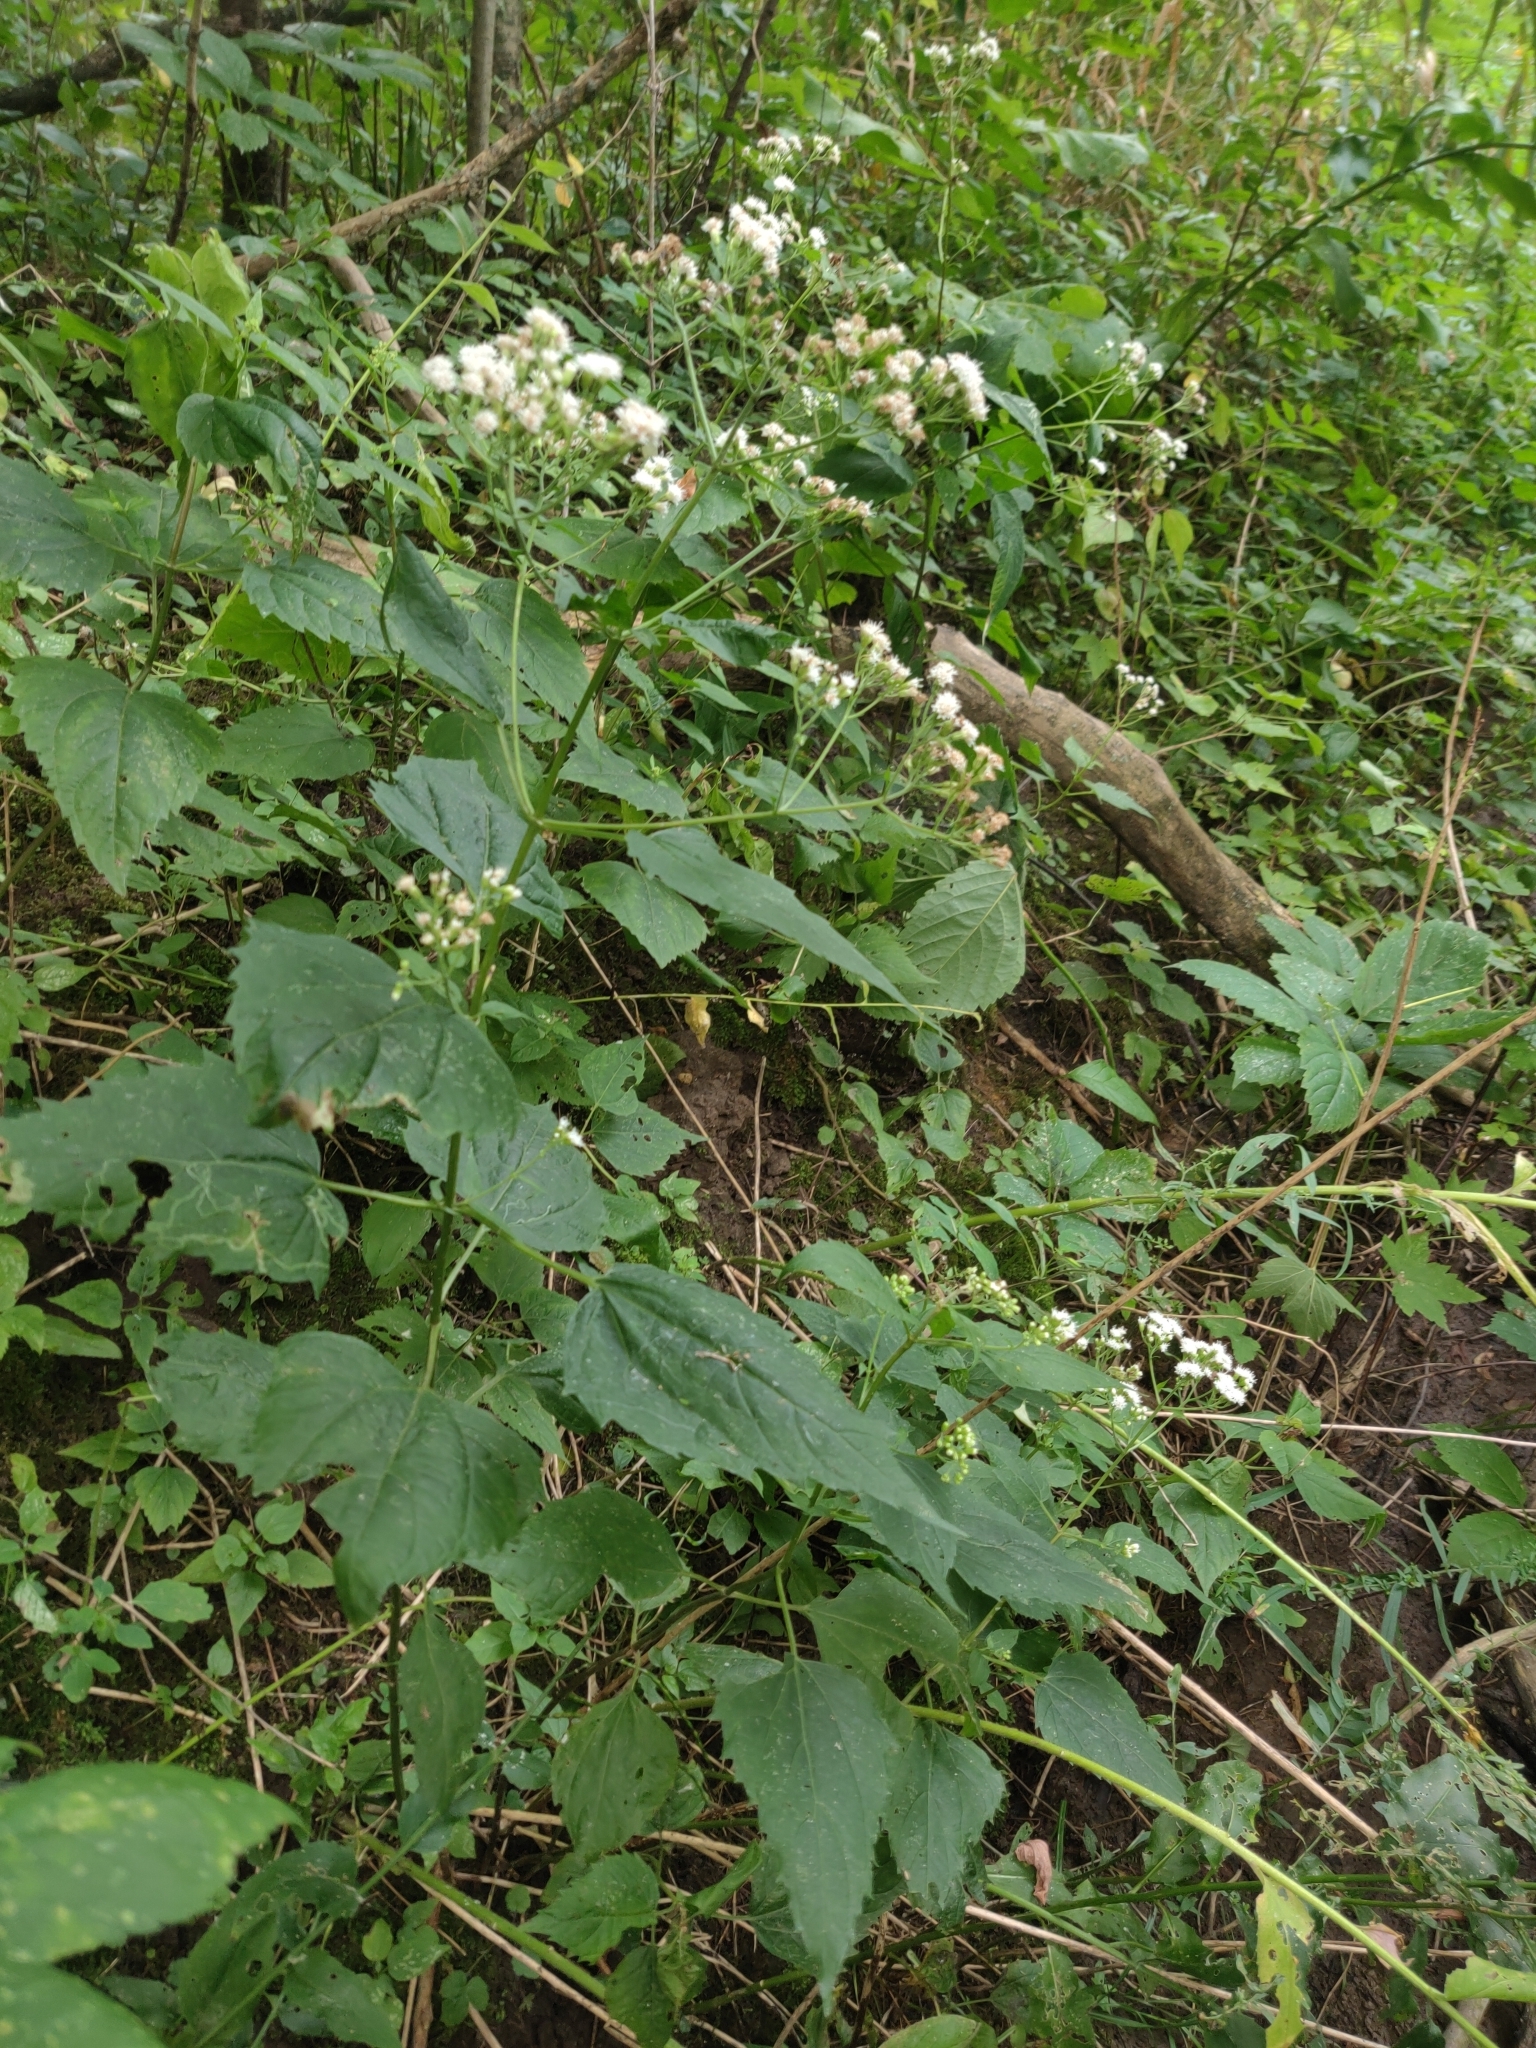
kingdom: Plantae
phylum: Tracheophyta
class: Magnoliopsida
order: Asterales
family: Asteraceae
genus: Ageratina
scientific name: Ageratina altissima
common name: White snakeroot
